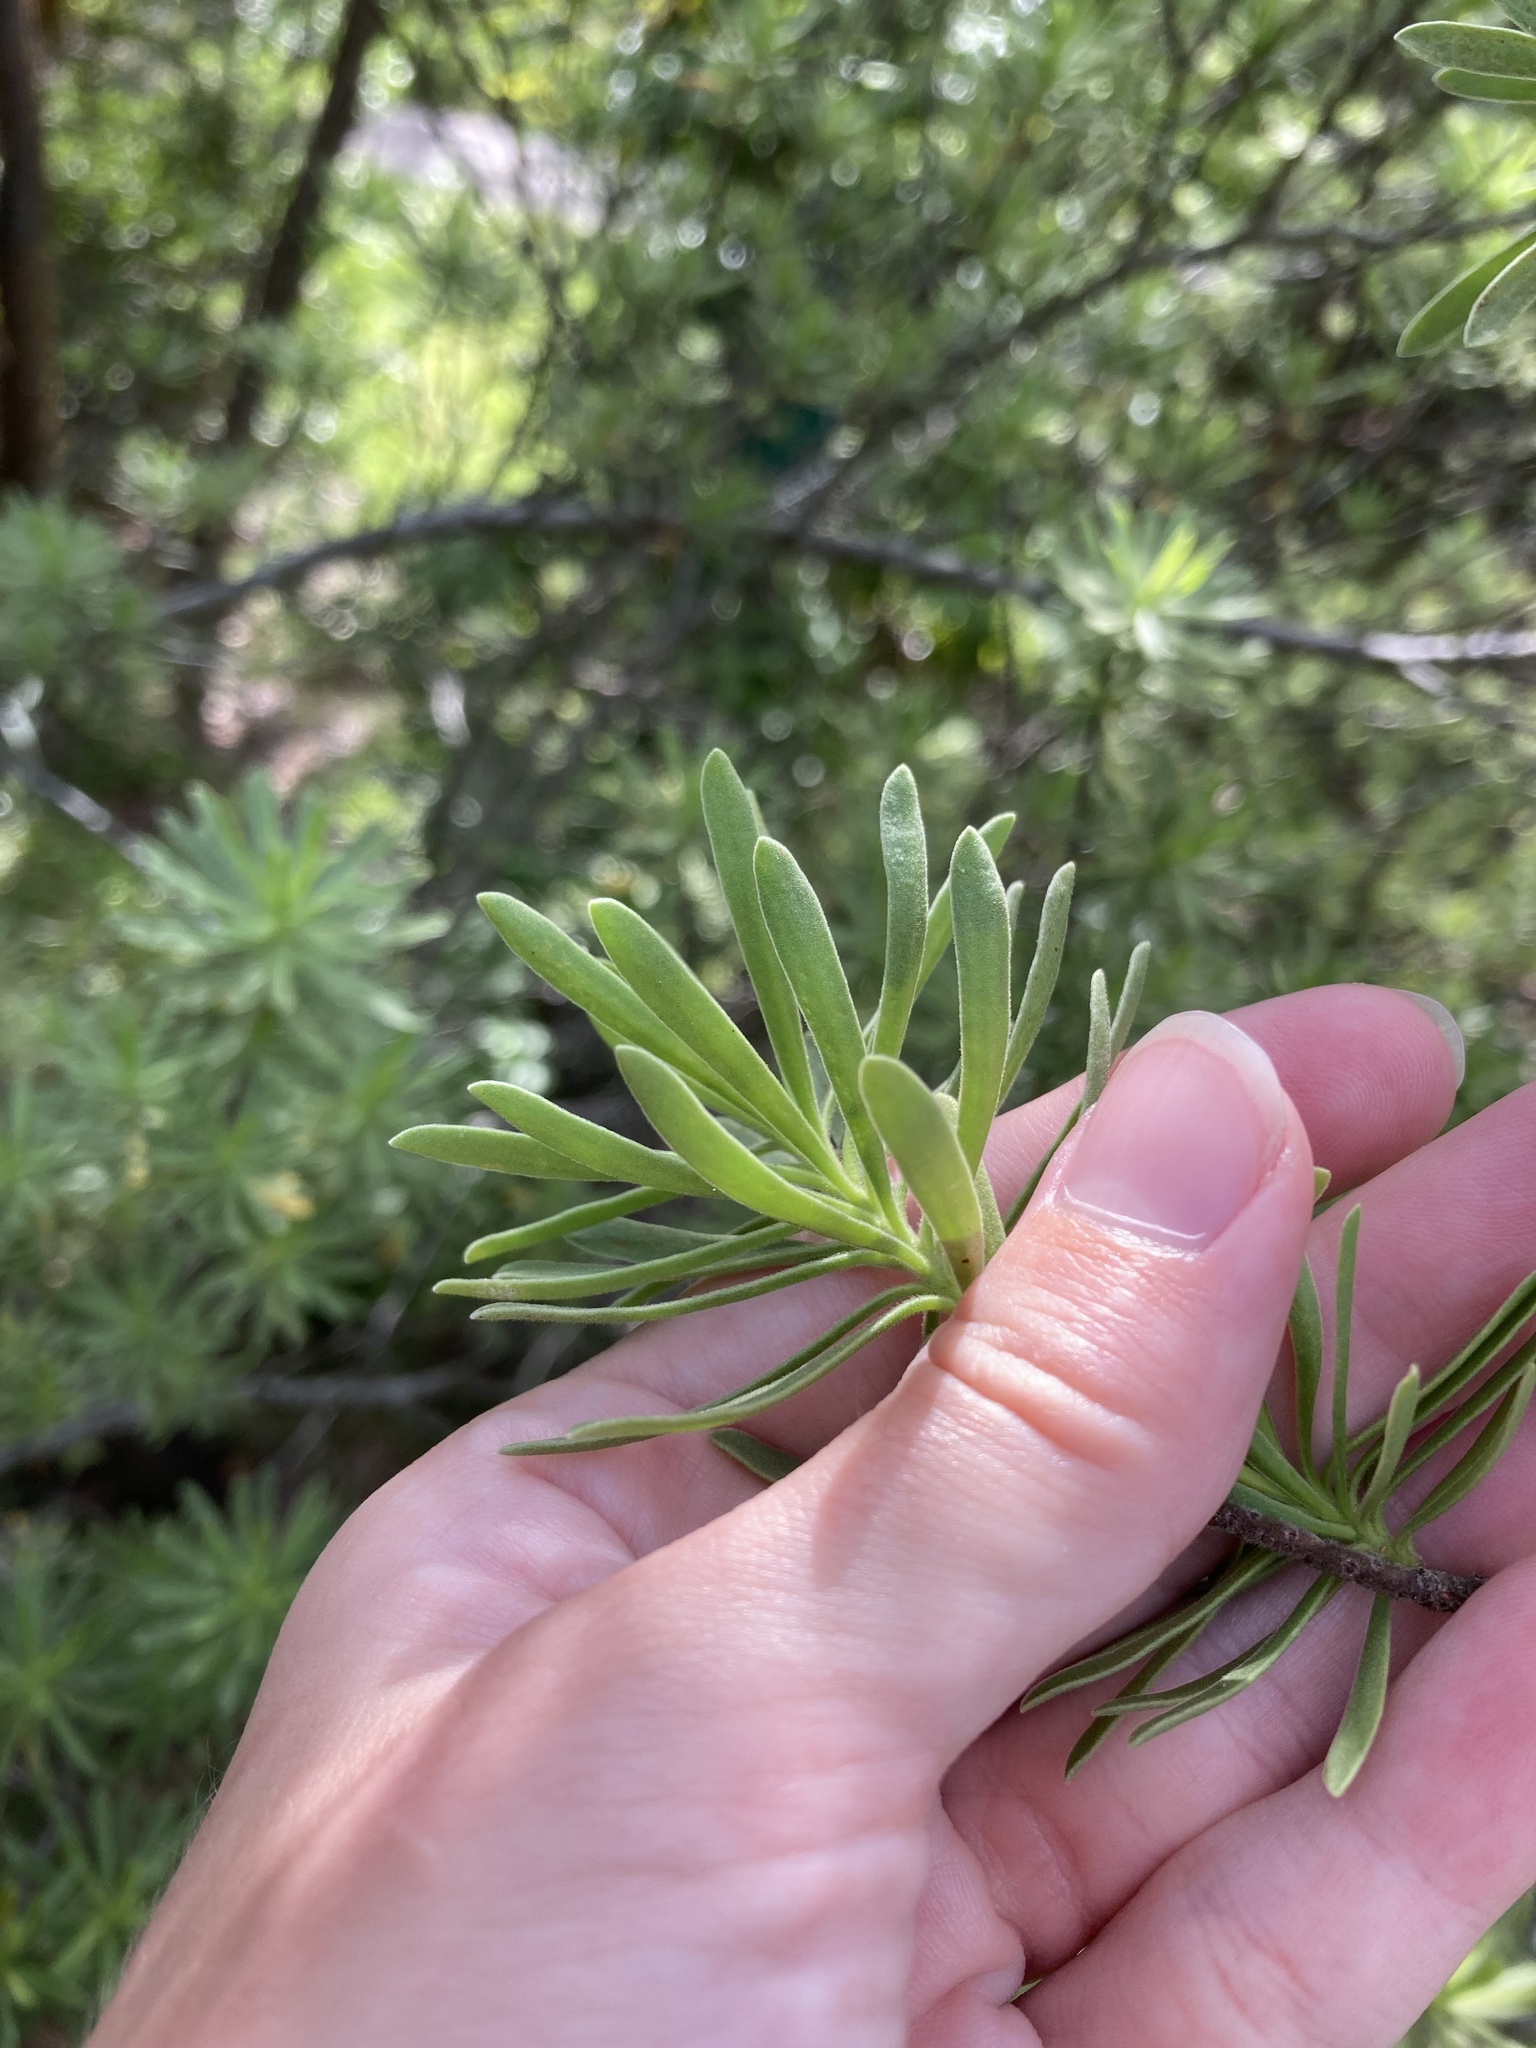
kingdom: Plantae
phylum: Tracheophyta
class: Magnoliopsida
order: Fabales
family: Surianaceae
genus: Suriana
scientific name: Suriana maritima
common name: Bay-cedar
